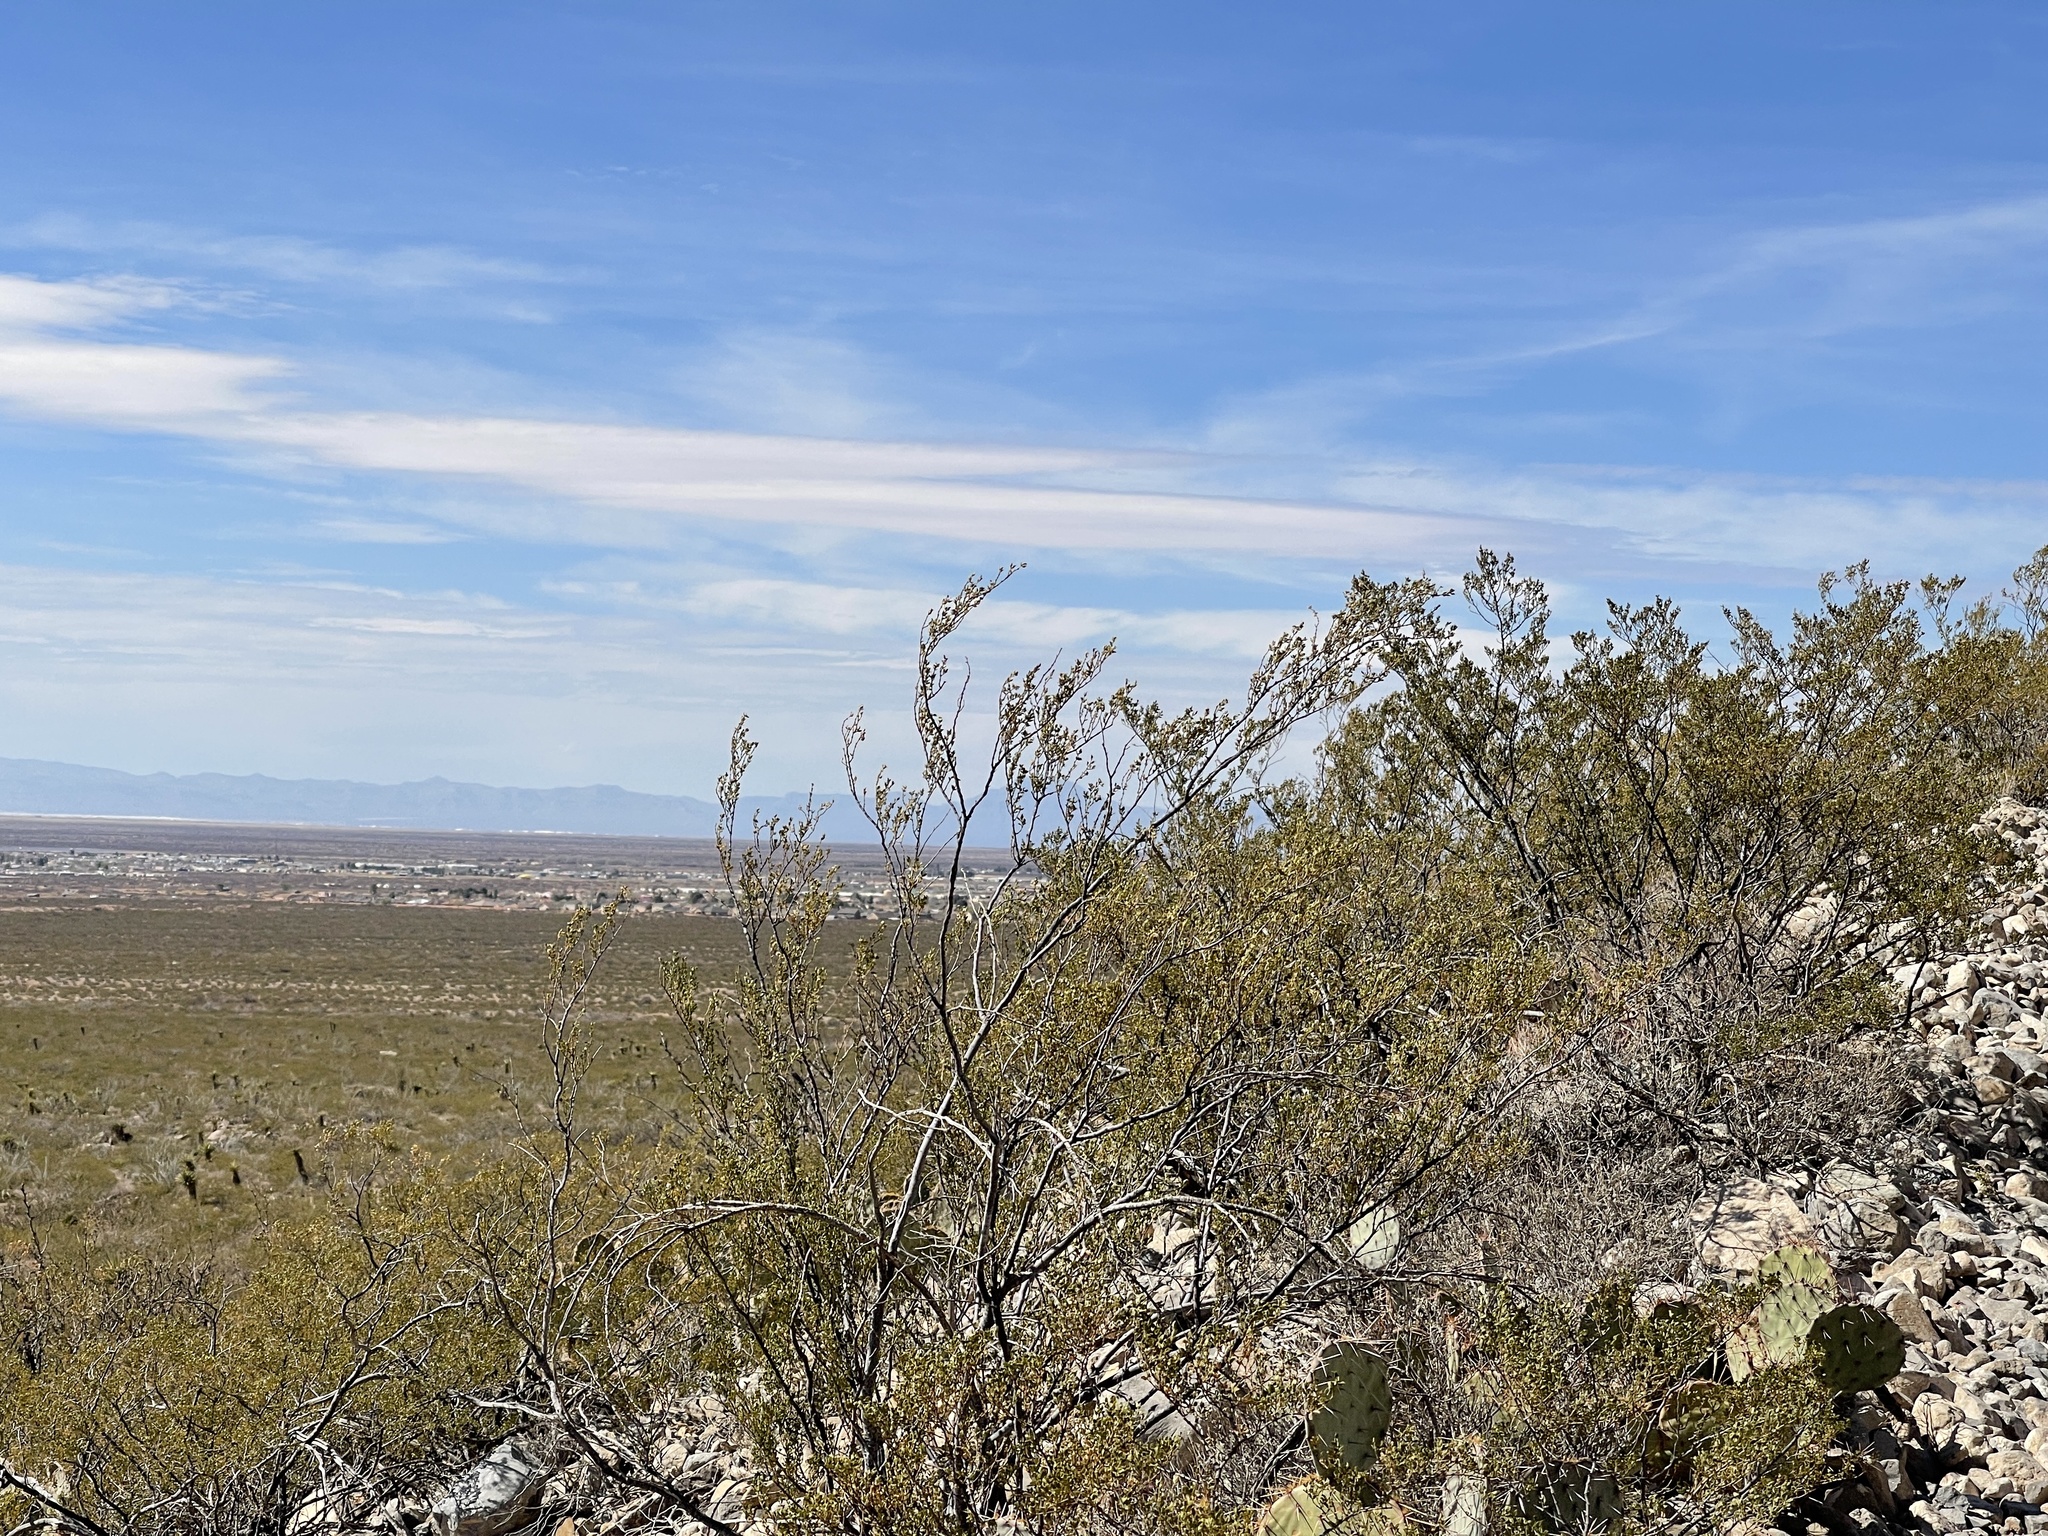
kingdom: Plantae
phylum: Tracheophyta
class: Magnoliopsida
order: Zygophyllales
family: Zygophyllaceae
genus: Larrea
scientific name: Larrea tridentata
